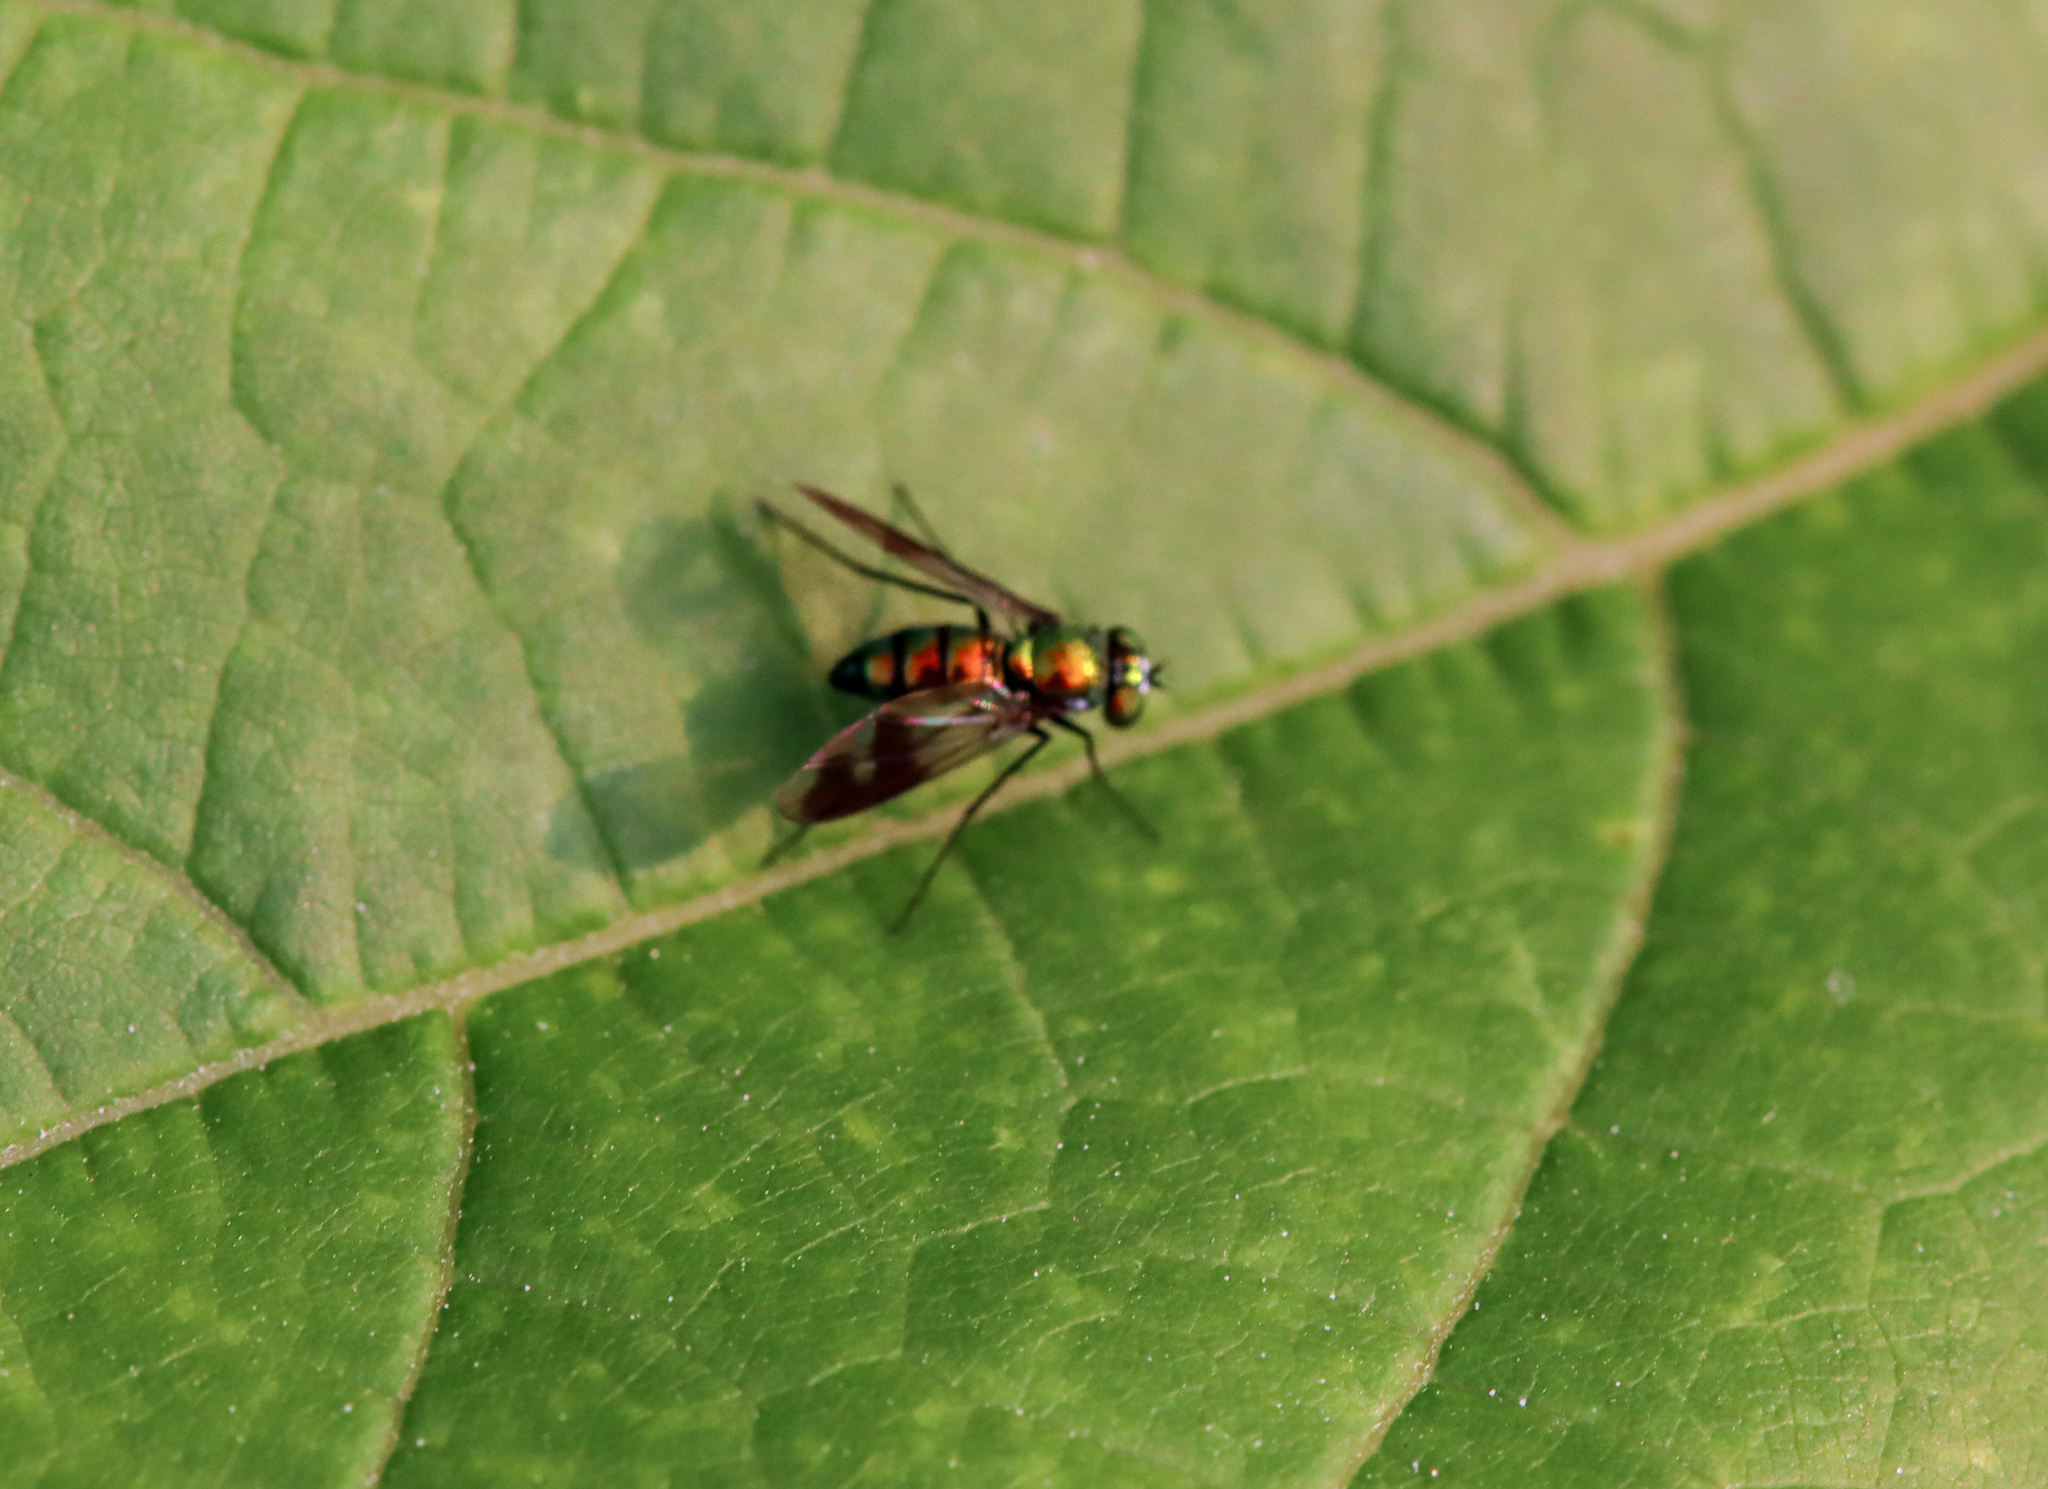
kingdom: Animalia
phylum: Arthropoda
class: Insecta
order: Diptera
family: Dolichopodidae
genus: Condylostylus
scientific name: Condylostylus patibulatus
